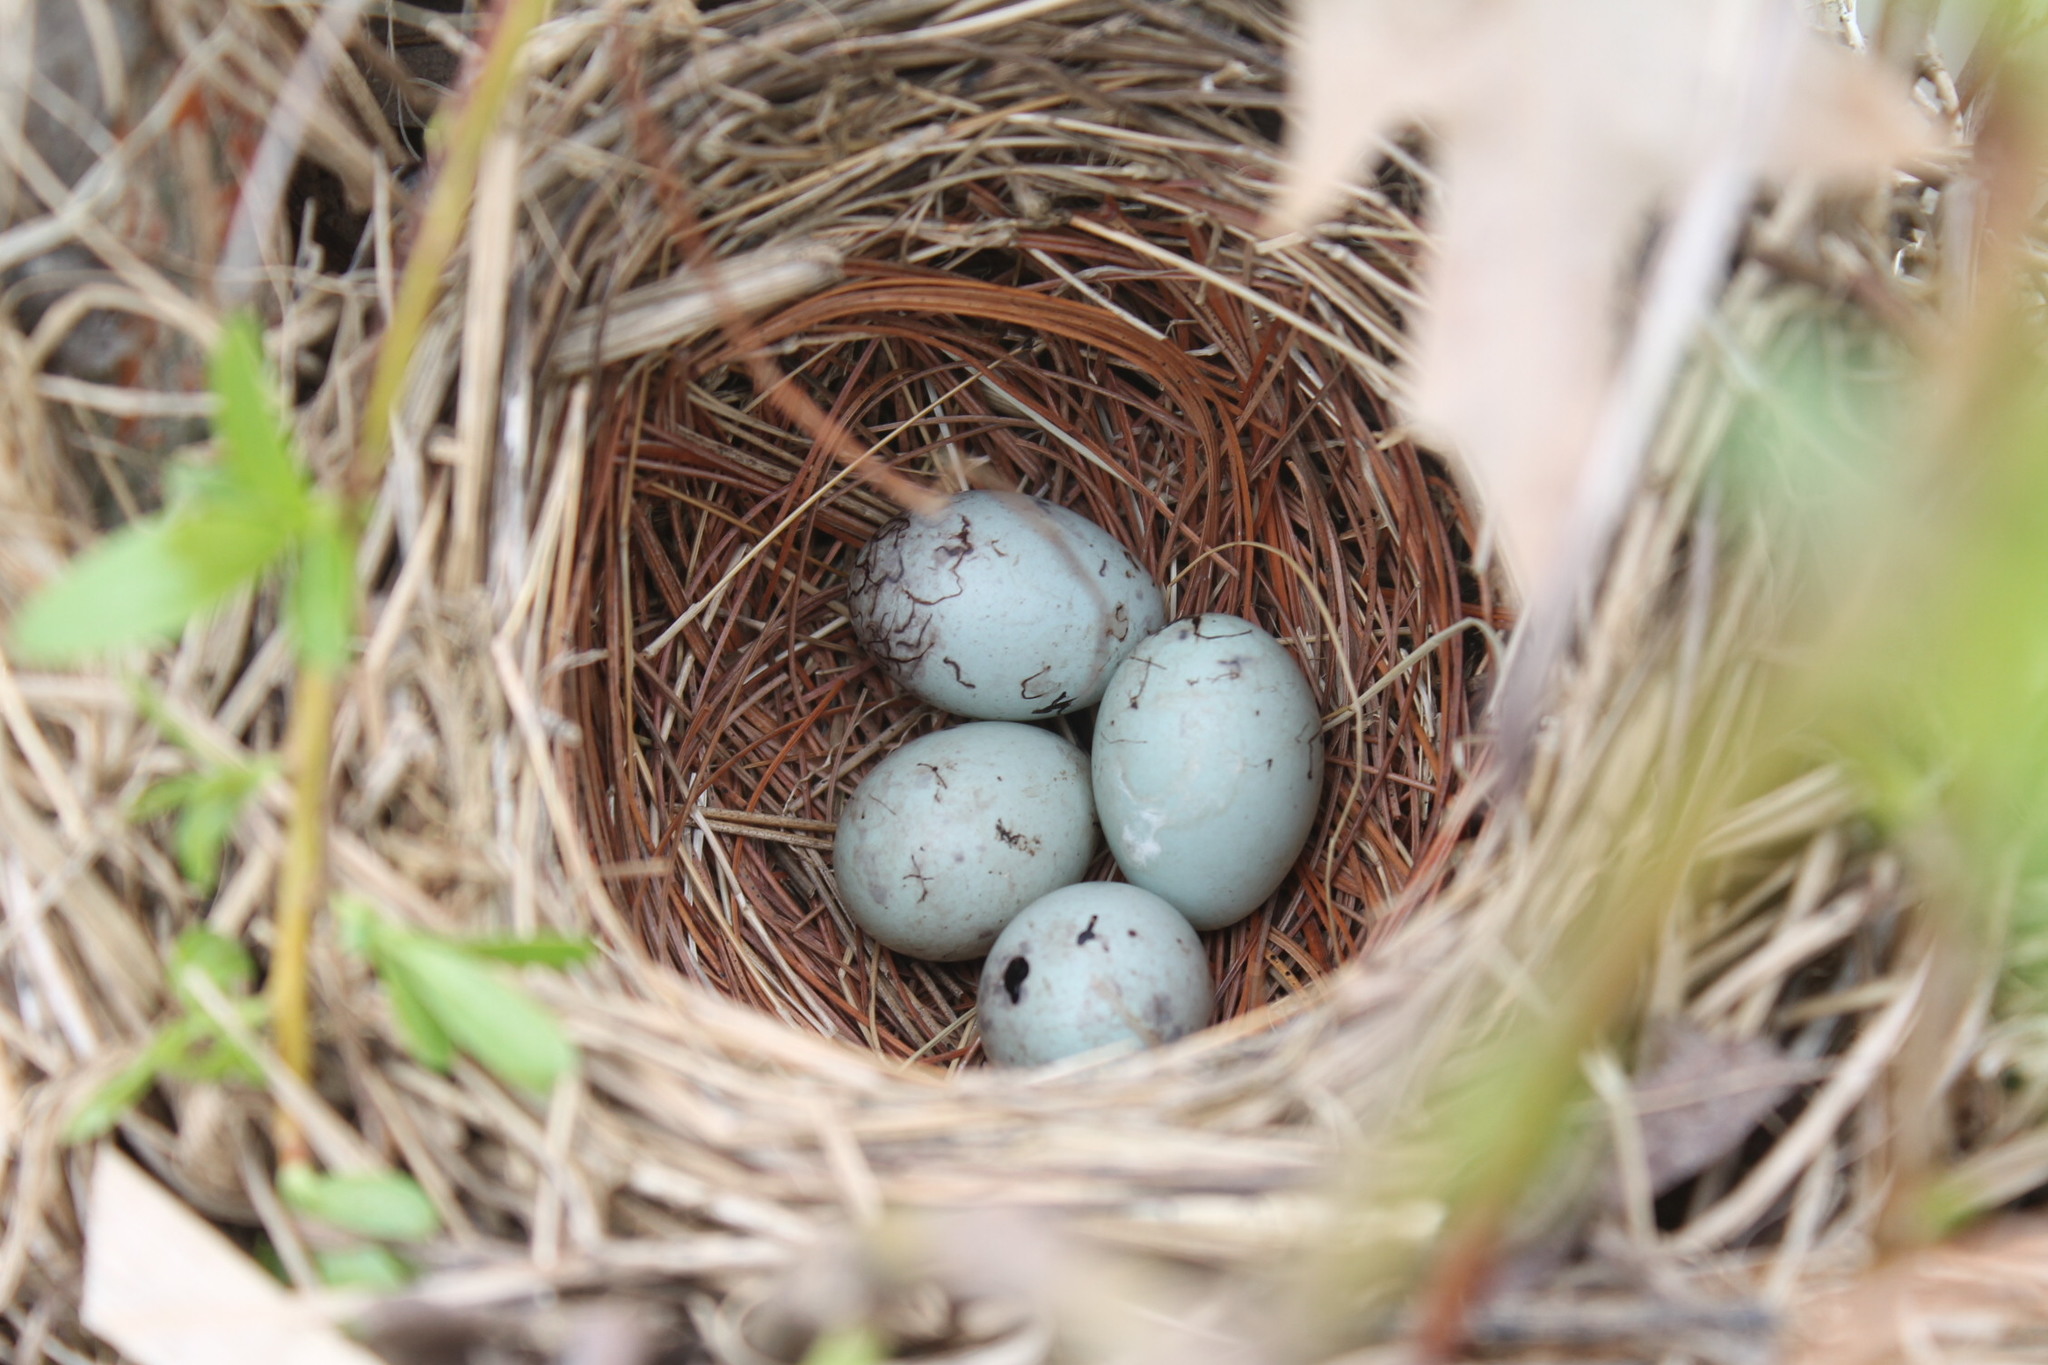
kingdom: Animalia
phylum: Chordata
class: Aves
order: Passeriformes
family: Icteridae
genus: Agelaius
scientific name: Agelaius phoeniceus
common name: Red-winged blackbird
